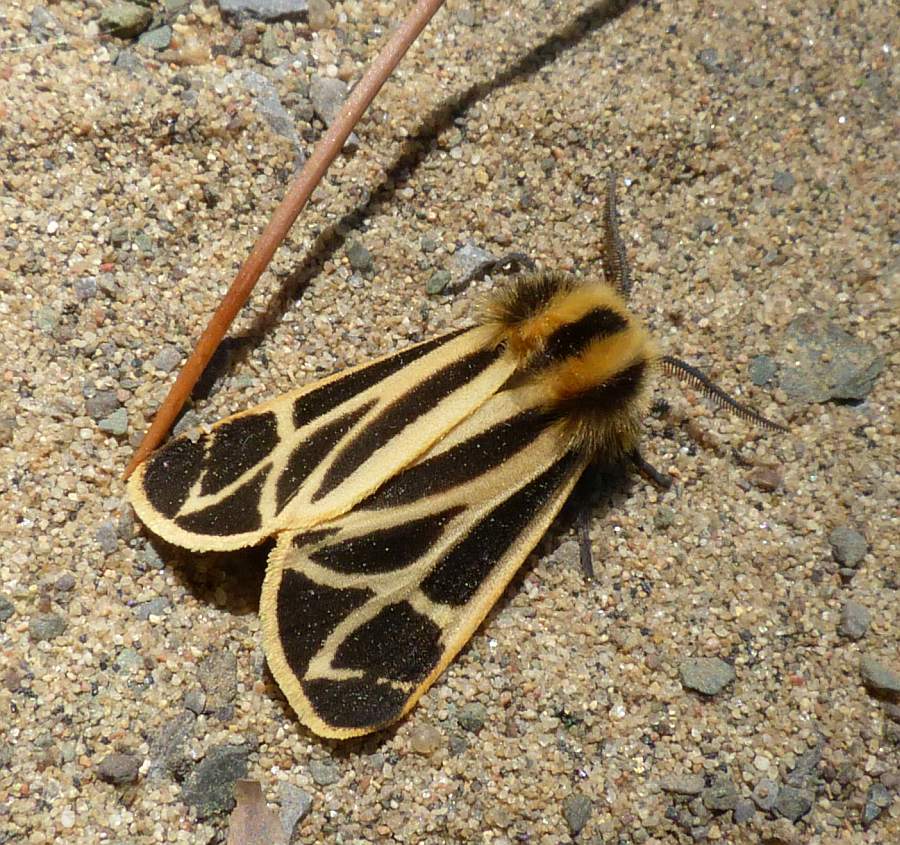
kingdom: Animalia
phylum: Arthropoda
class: Insecta
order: Lepidoptera
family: Erebidae
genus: Apantesis
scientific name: Apantesis nais
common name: Nais tiger moth
